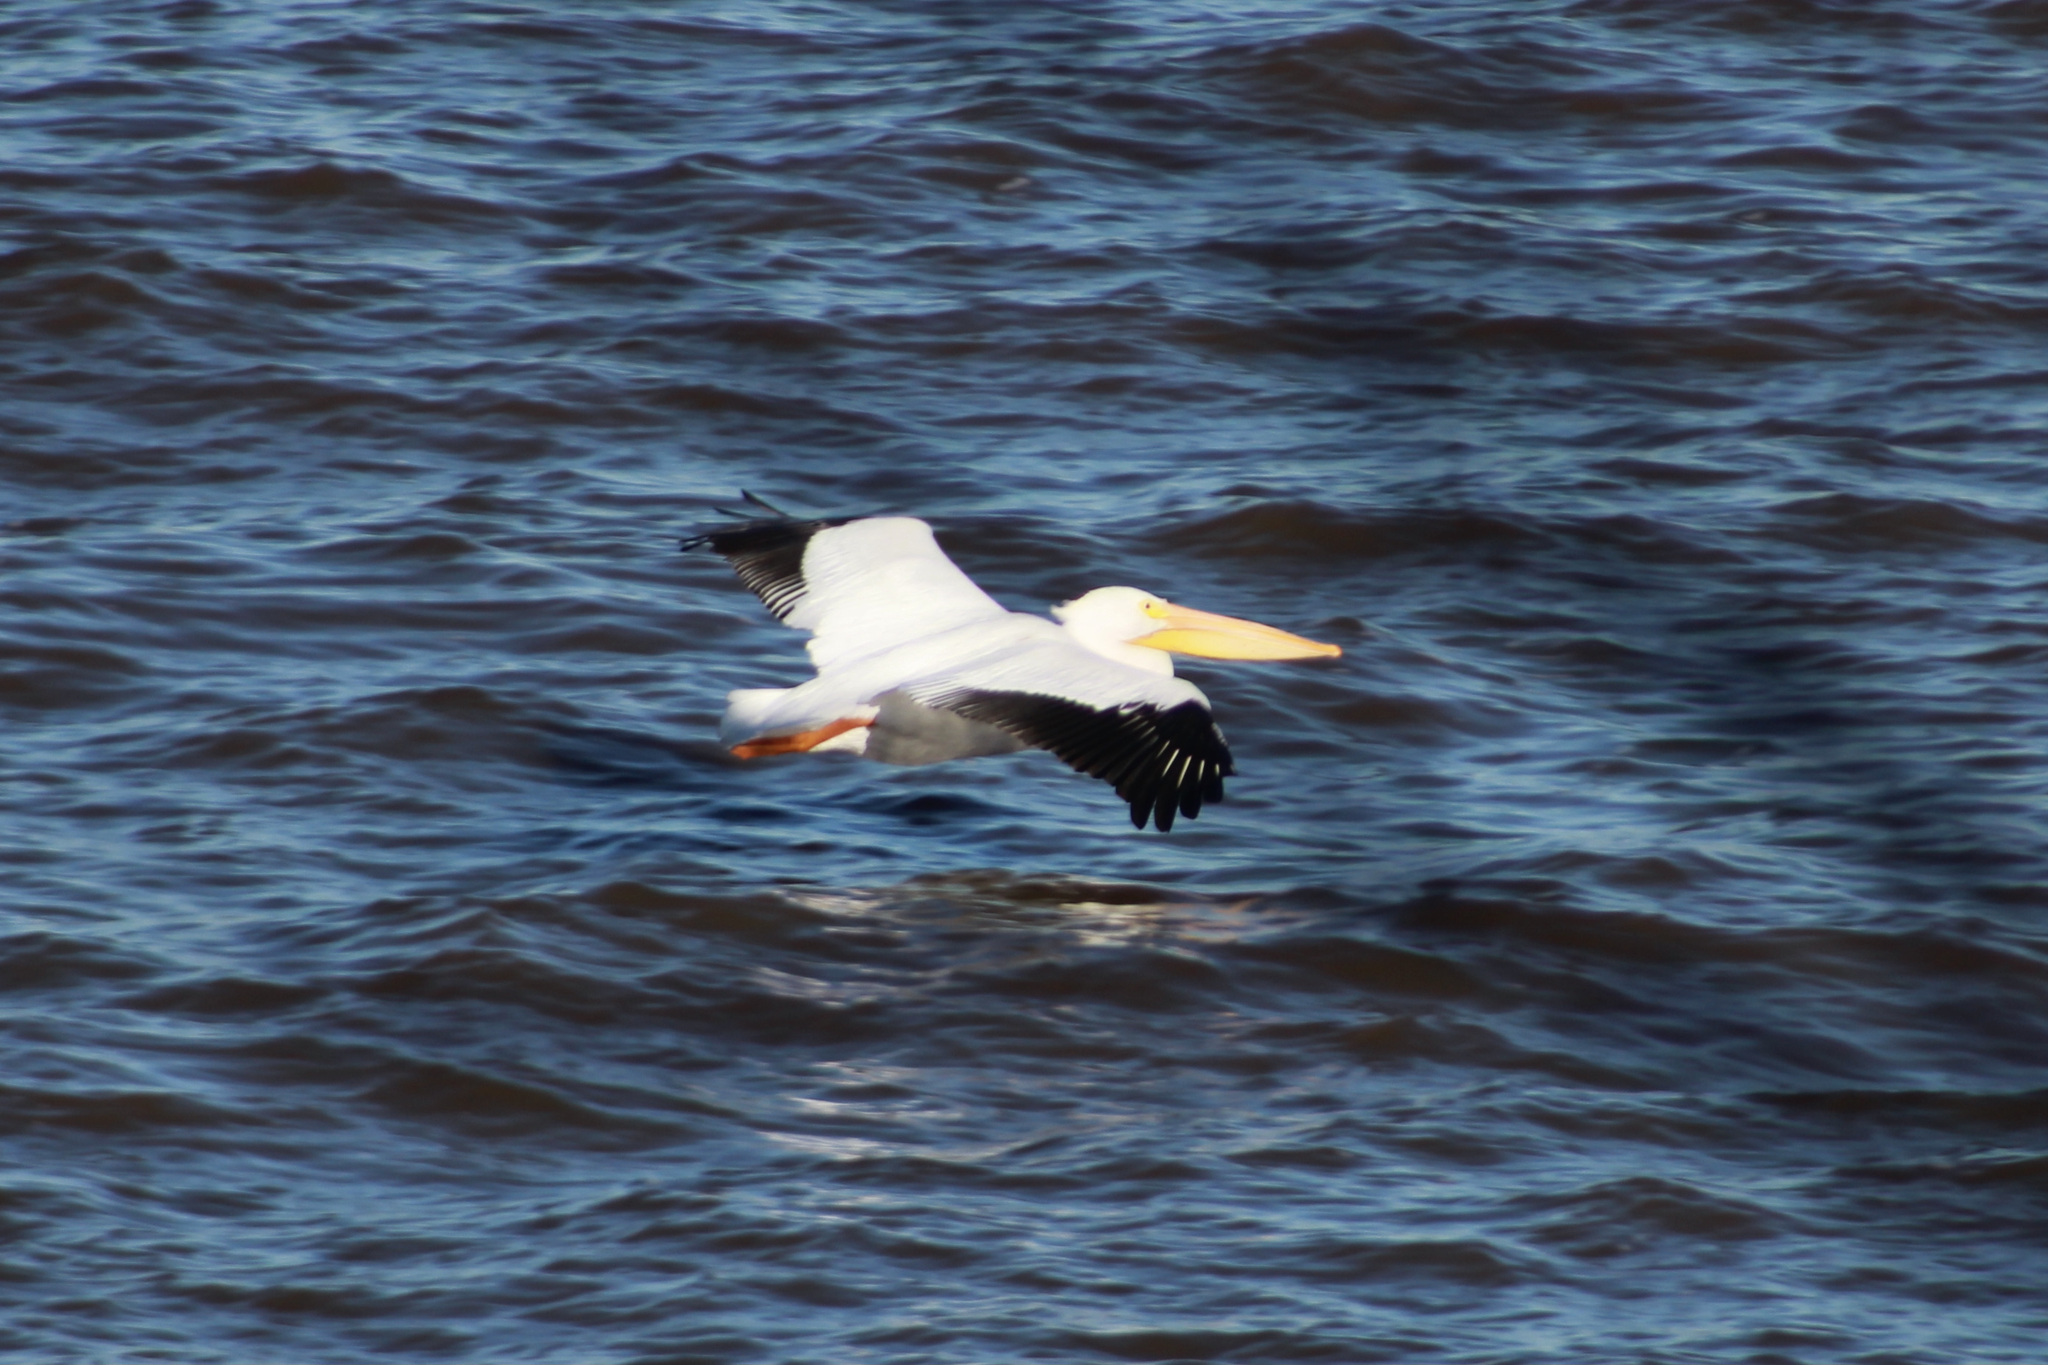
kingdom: Animalia
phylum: Chordata
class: Aves
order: Pelecaniformes
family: Pelecanidae
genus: Pelecanus
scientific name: Pelecanus erythrorhynchos
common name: American white pelican
